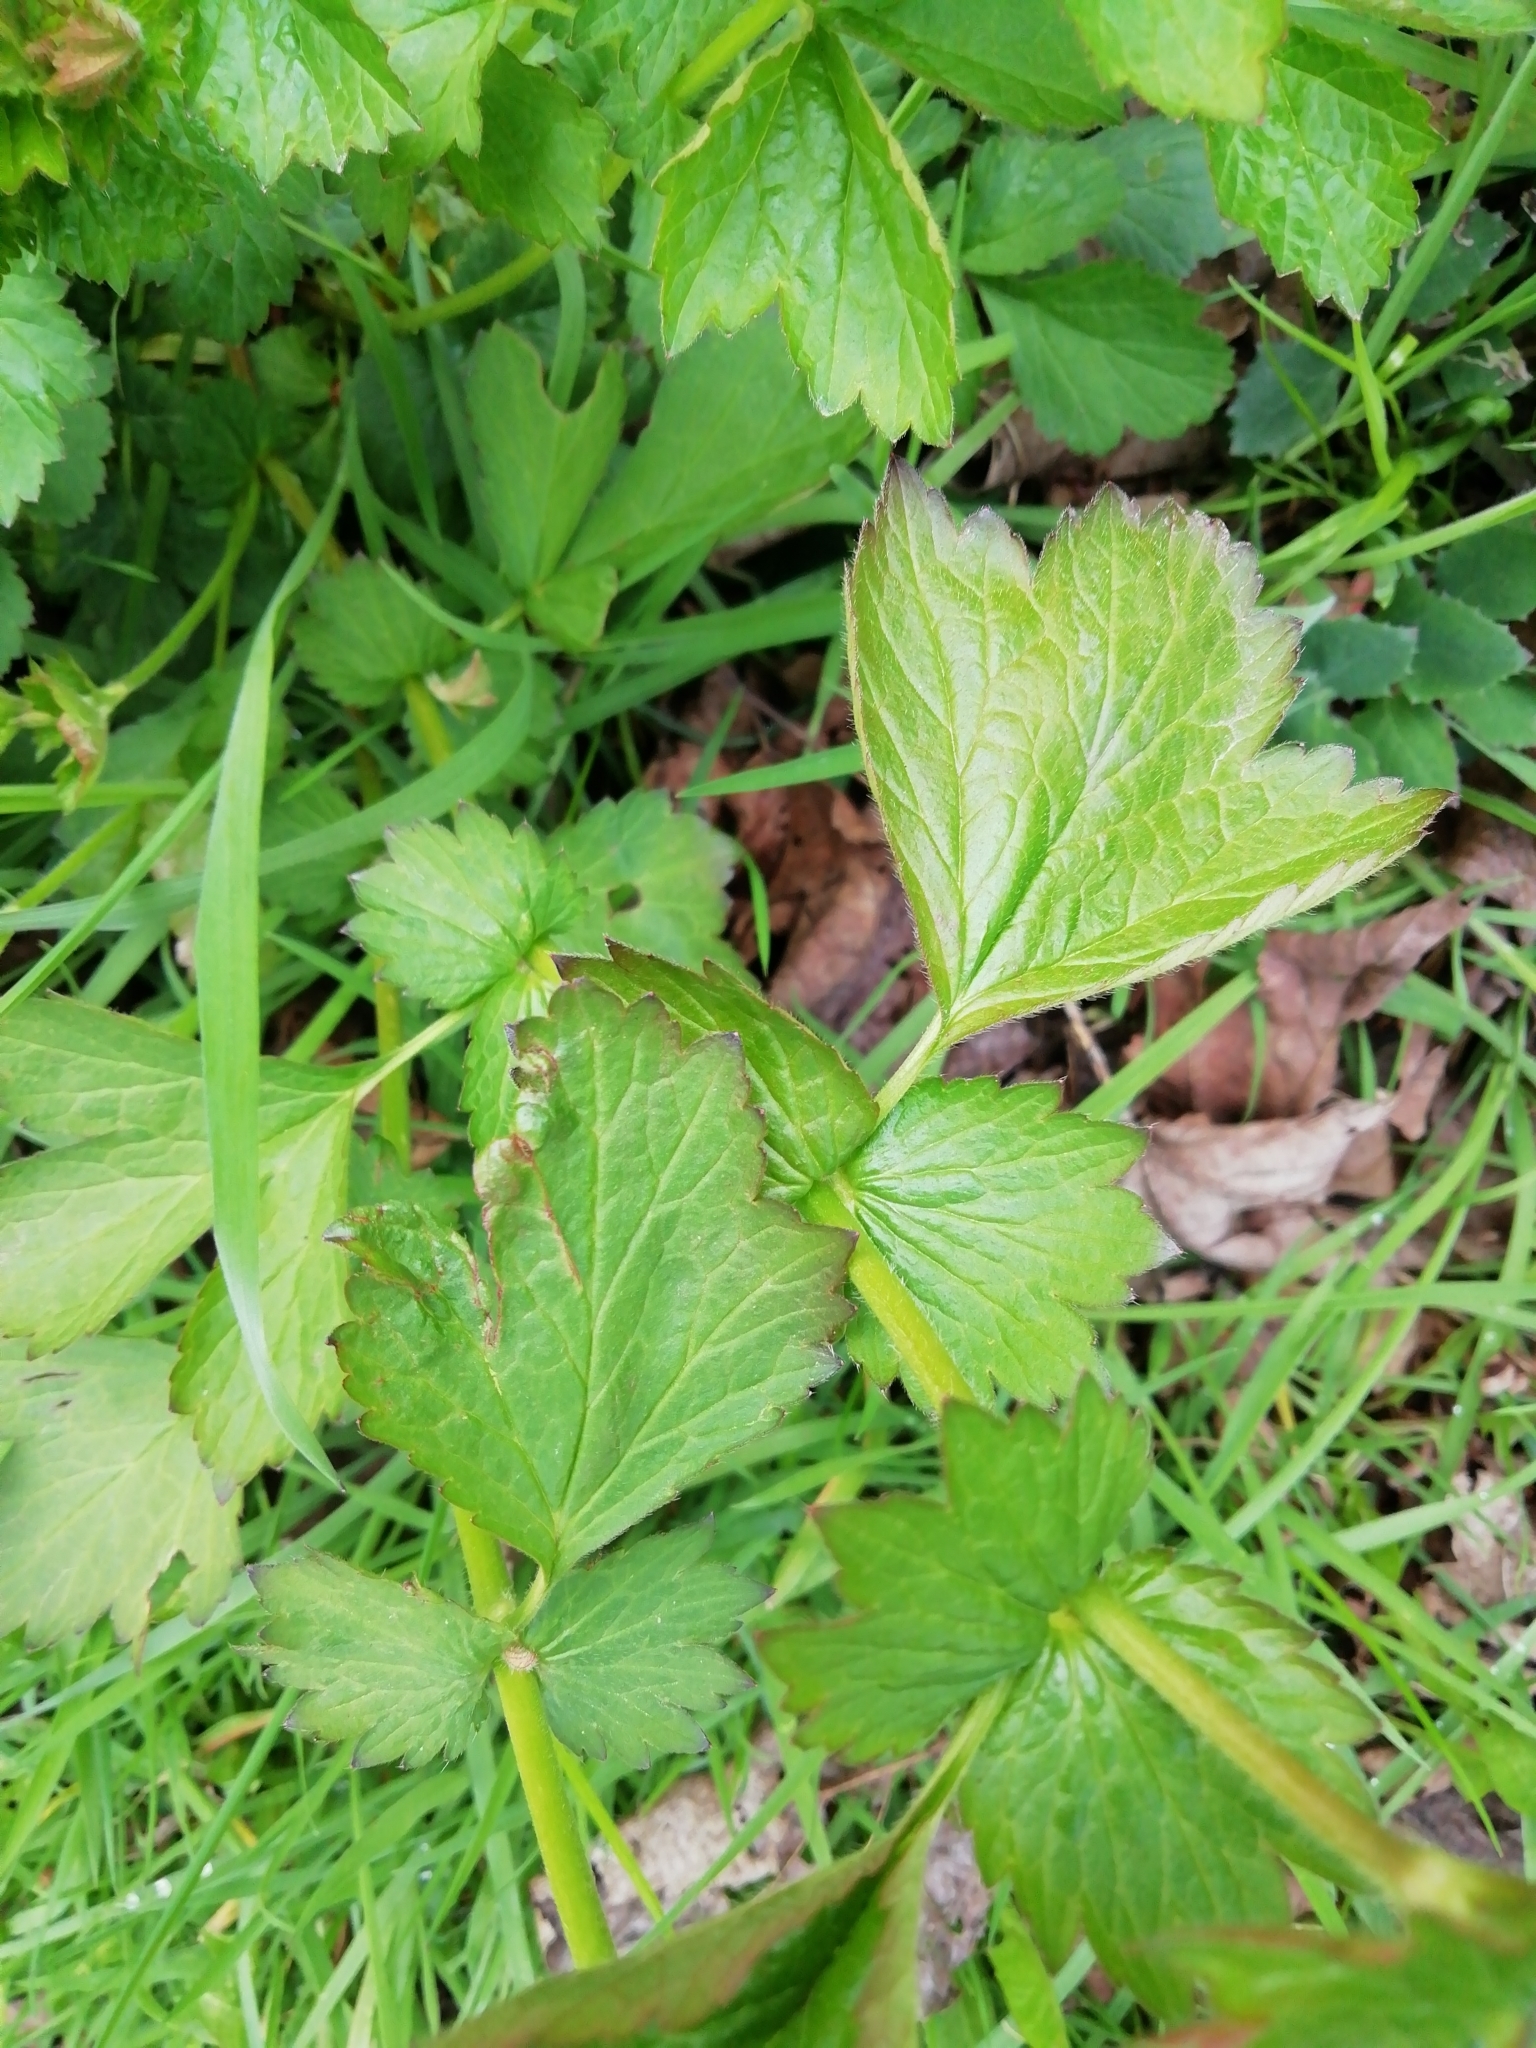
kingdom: Plantae
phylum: Tracheophyta
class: Magnoliopsida
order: Rosales
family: Rosaceae
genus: Geum
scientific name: Geum urbanum
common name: Wood avens
